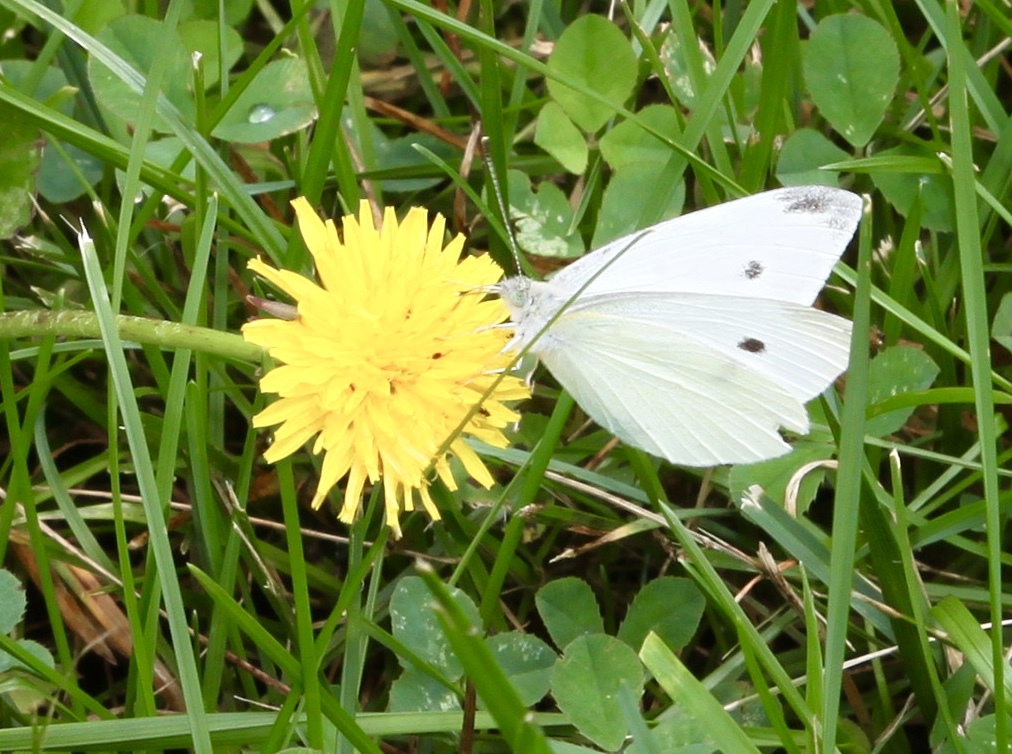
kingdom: Animalia
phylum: Arthropoda
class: Insecta
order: Lepidoptera
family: Pieridae
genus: Pieris
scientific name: Pieris rapae
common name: Small white
